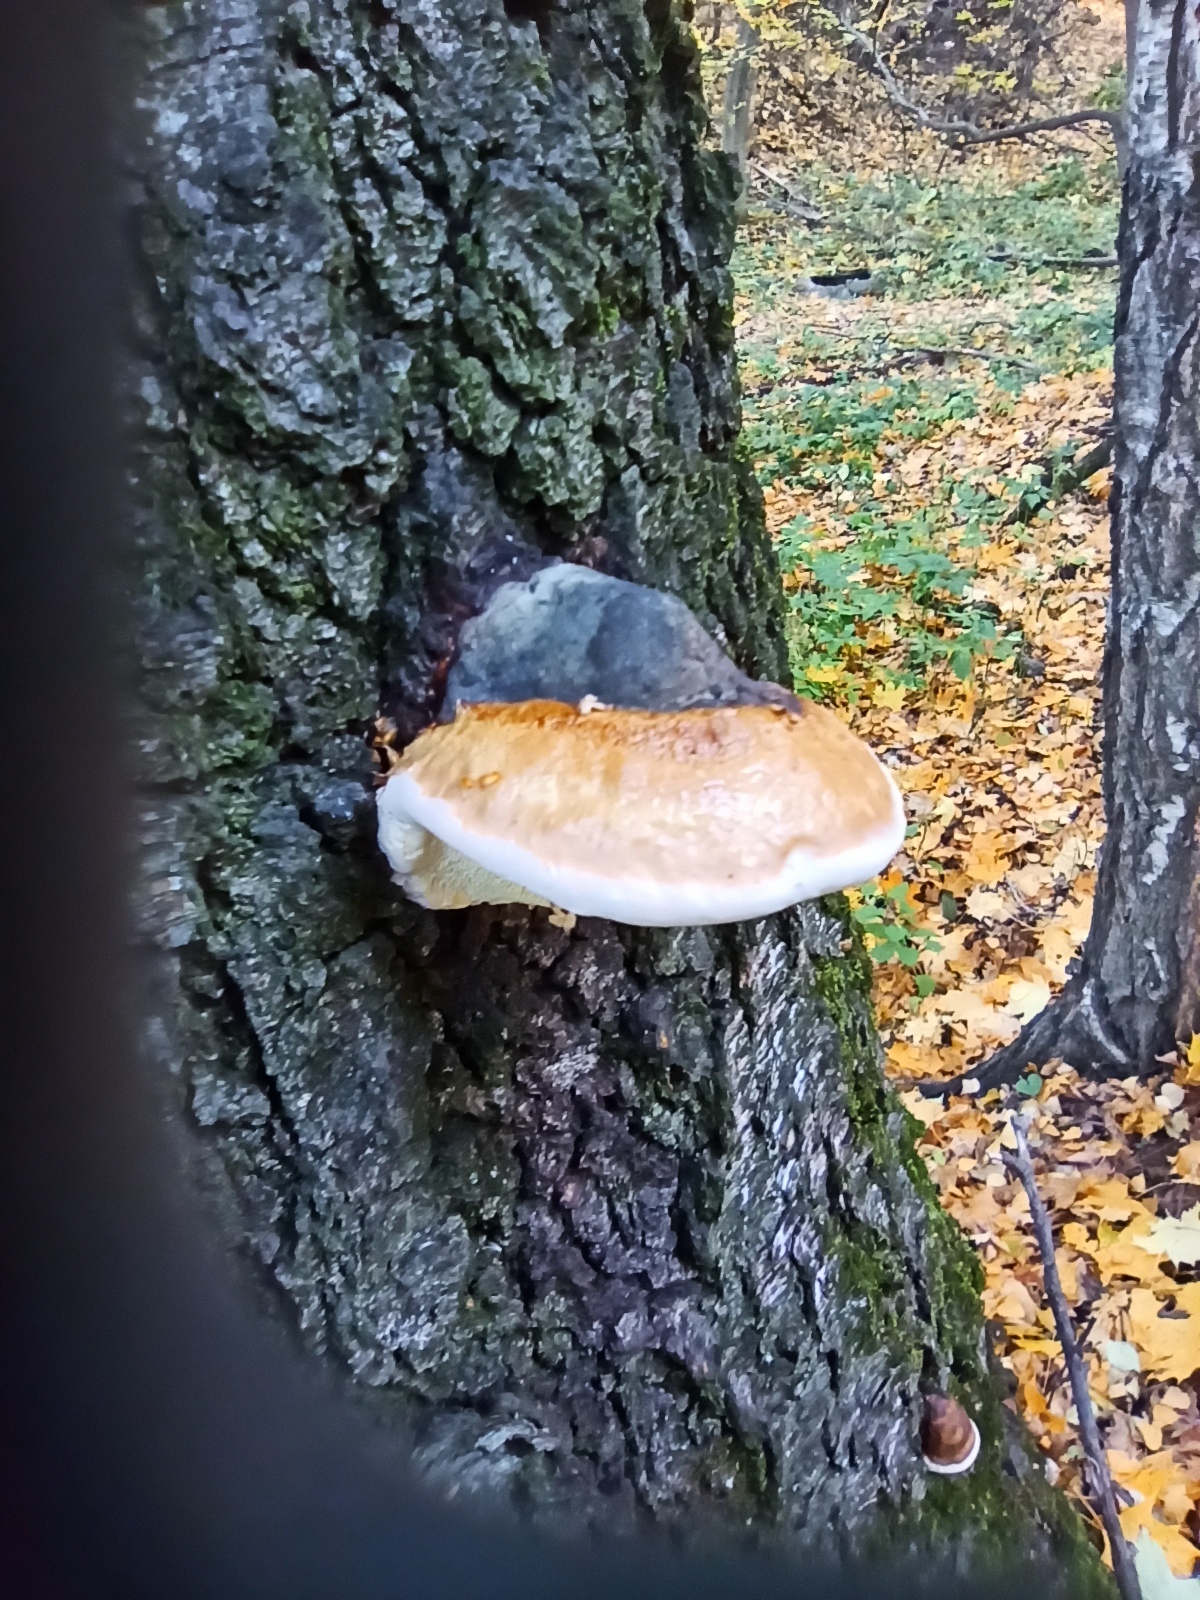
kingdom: Fungi
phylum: Basidiomycota
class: Agaricomycetes
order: Polyporales
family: Fomitopsidaceae
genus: Fomitopsis
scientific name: Fomitopsis pinicola
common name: Red-belted bracket
